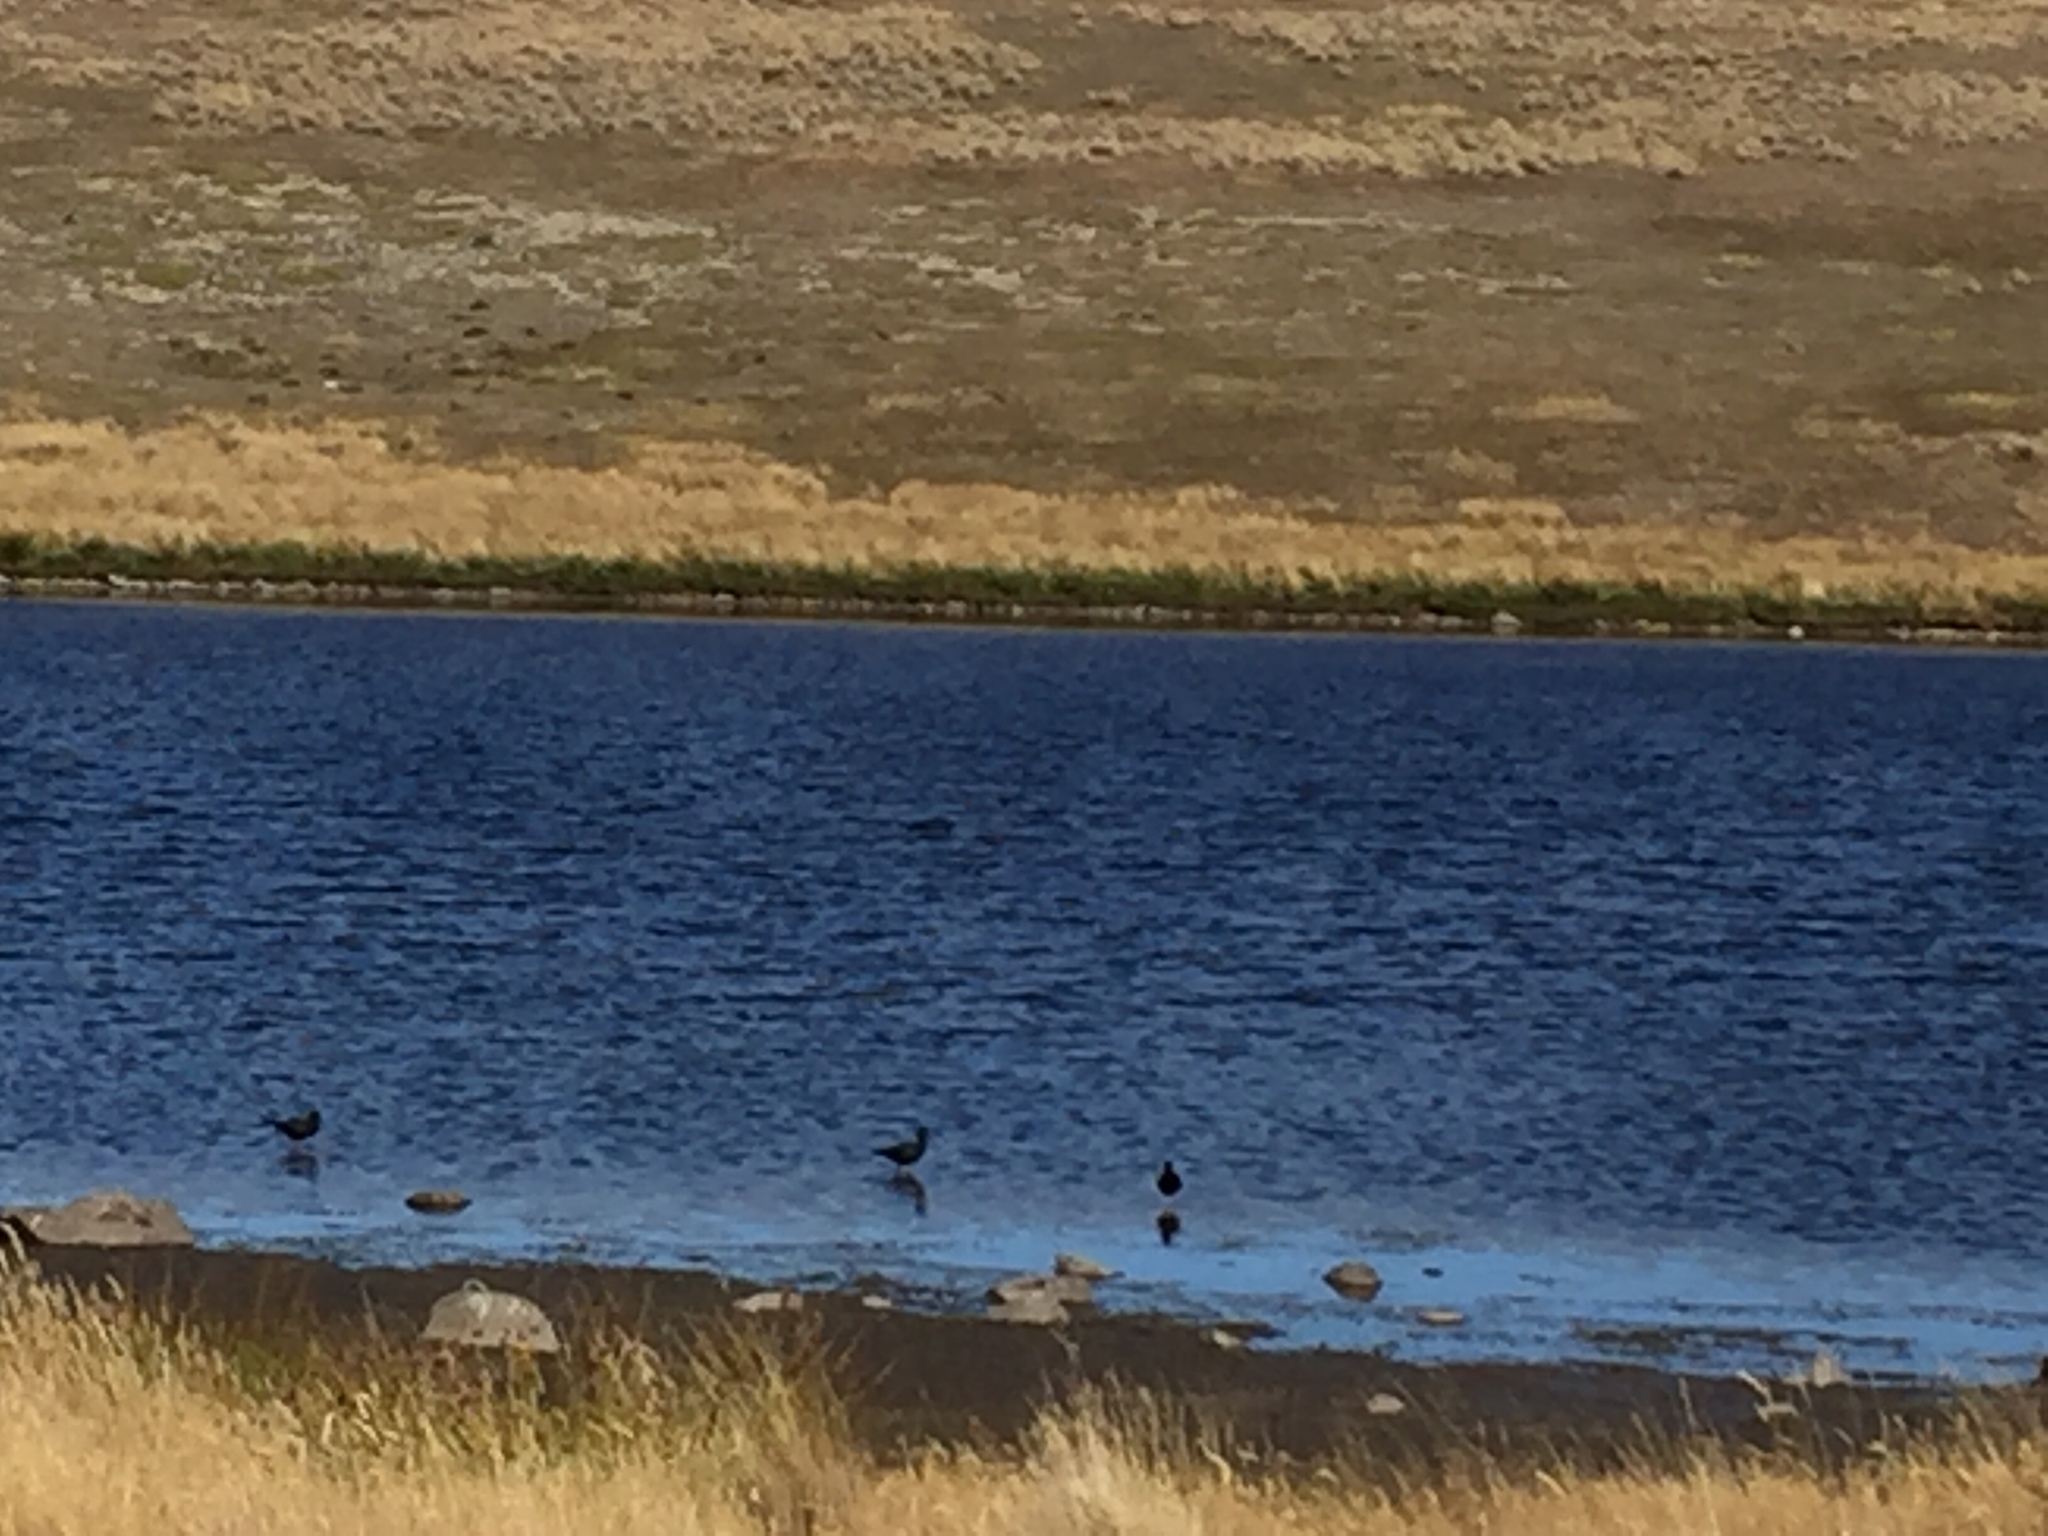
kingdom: Animalia
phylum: Chordata
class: Aves
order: Charadriiformes
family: Recurvirostridae
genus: Himantopus
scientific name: Himantopus novaezelandiae
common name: Black stilt
